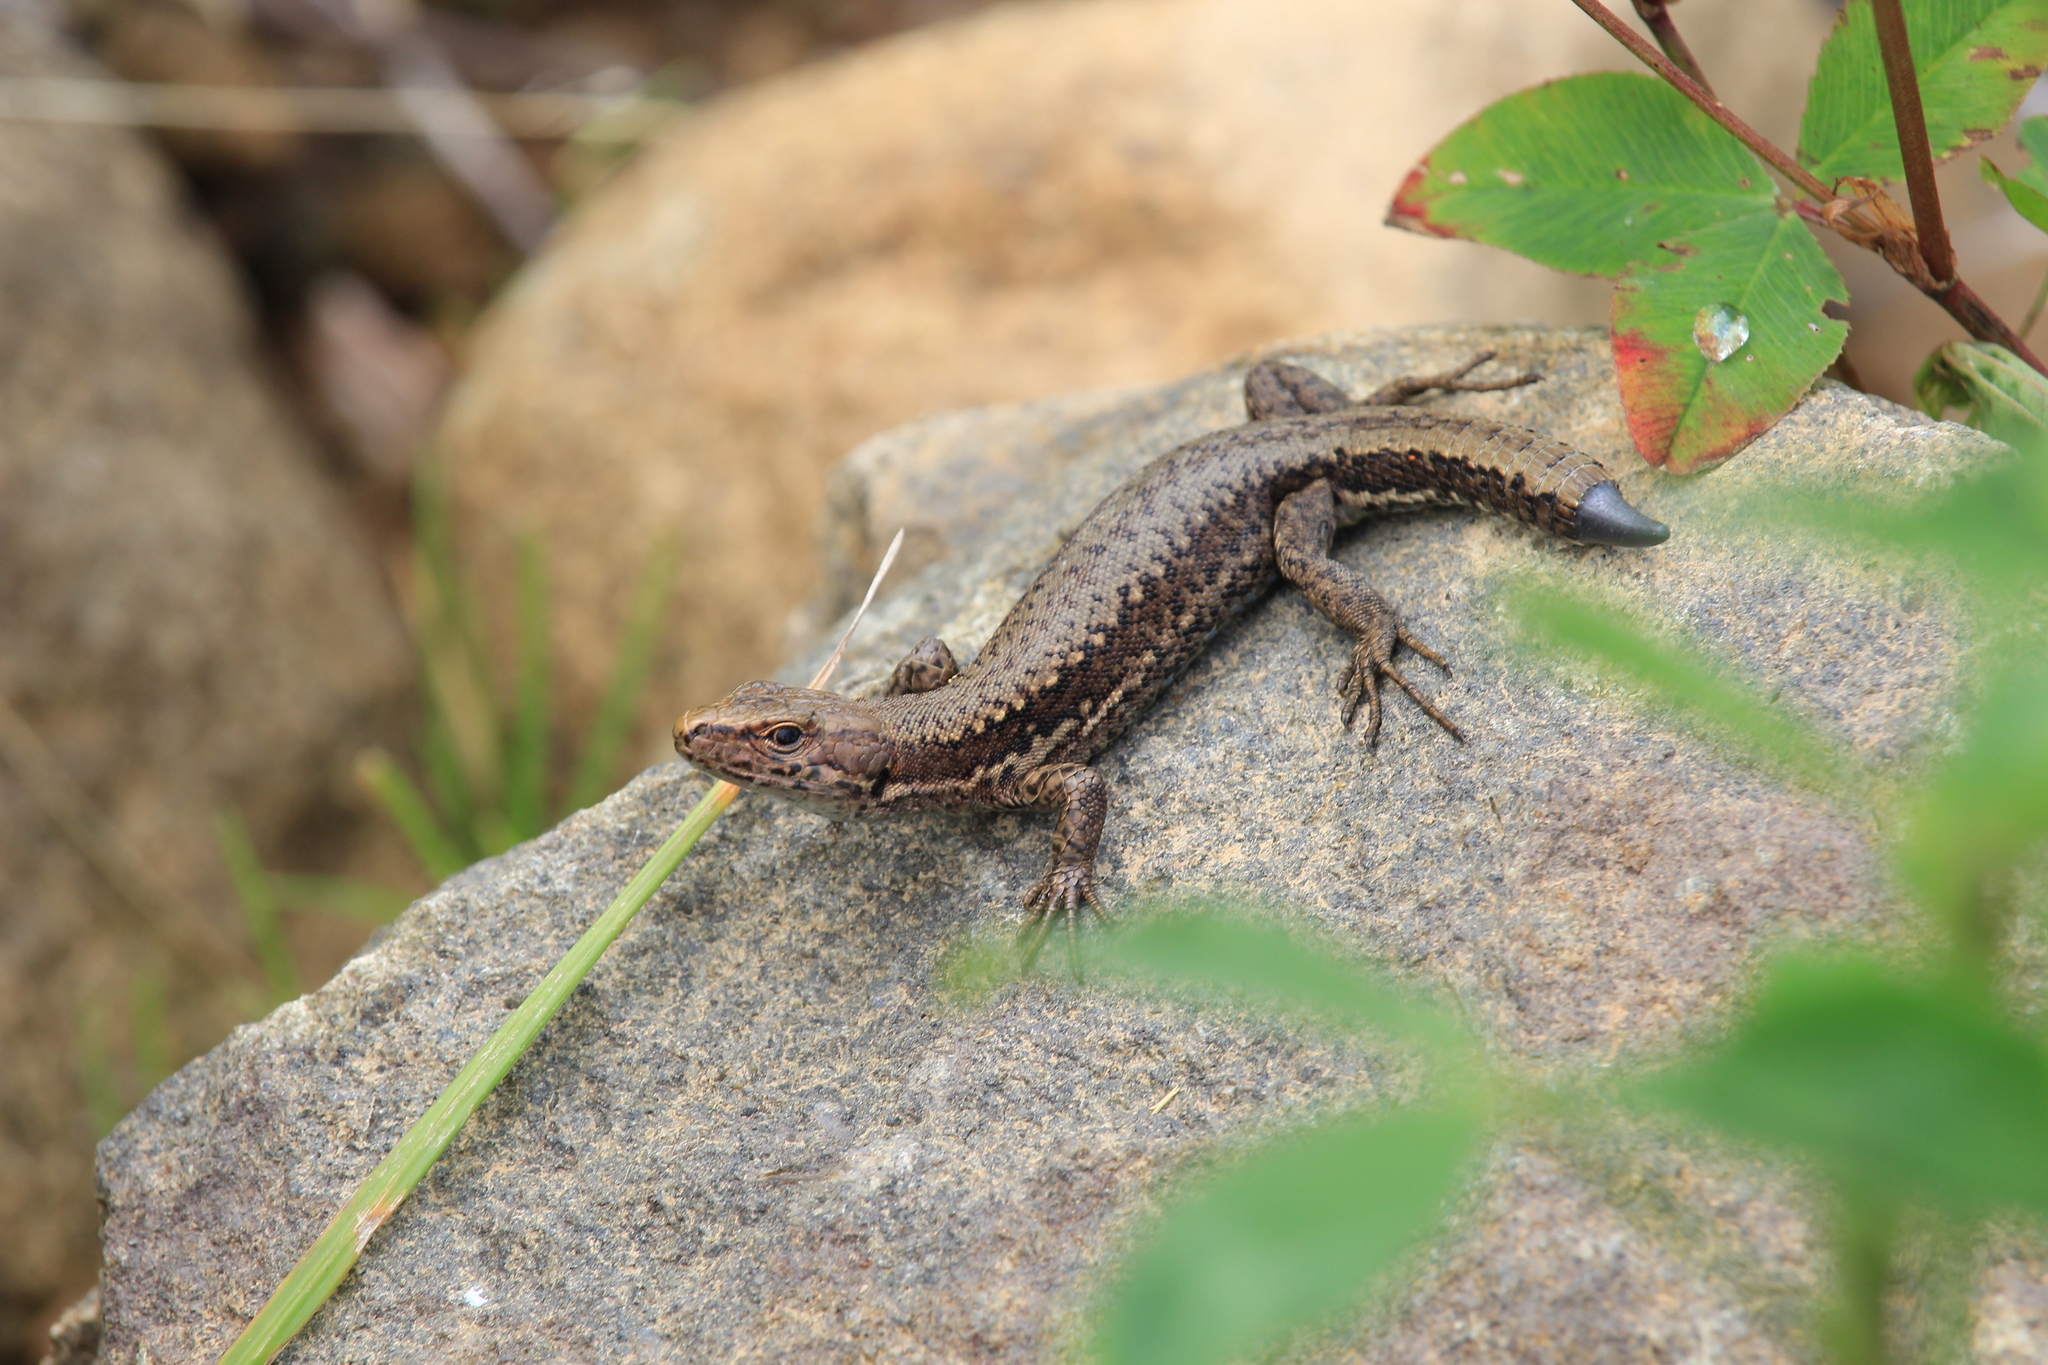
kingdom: Animalia
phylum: Chordata
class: Squamata
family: Lacertidae
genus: Darevskia
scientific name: Darevskia derjugini
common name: Derjugin's lizard
